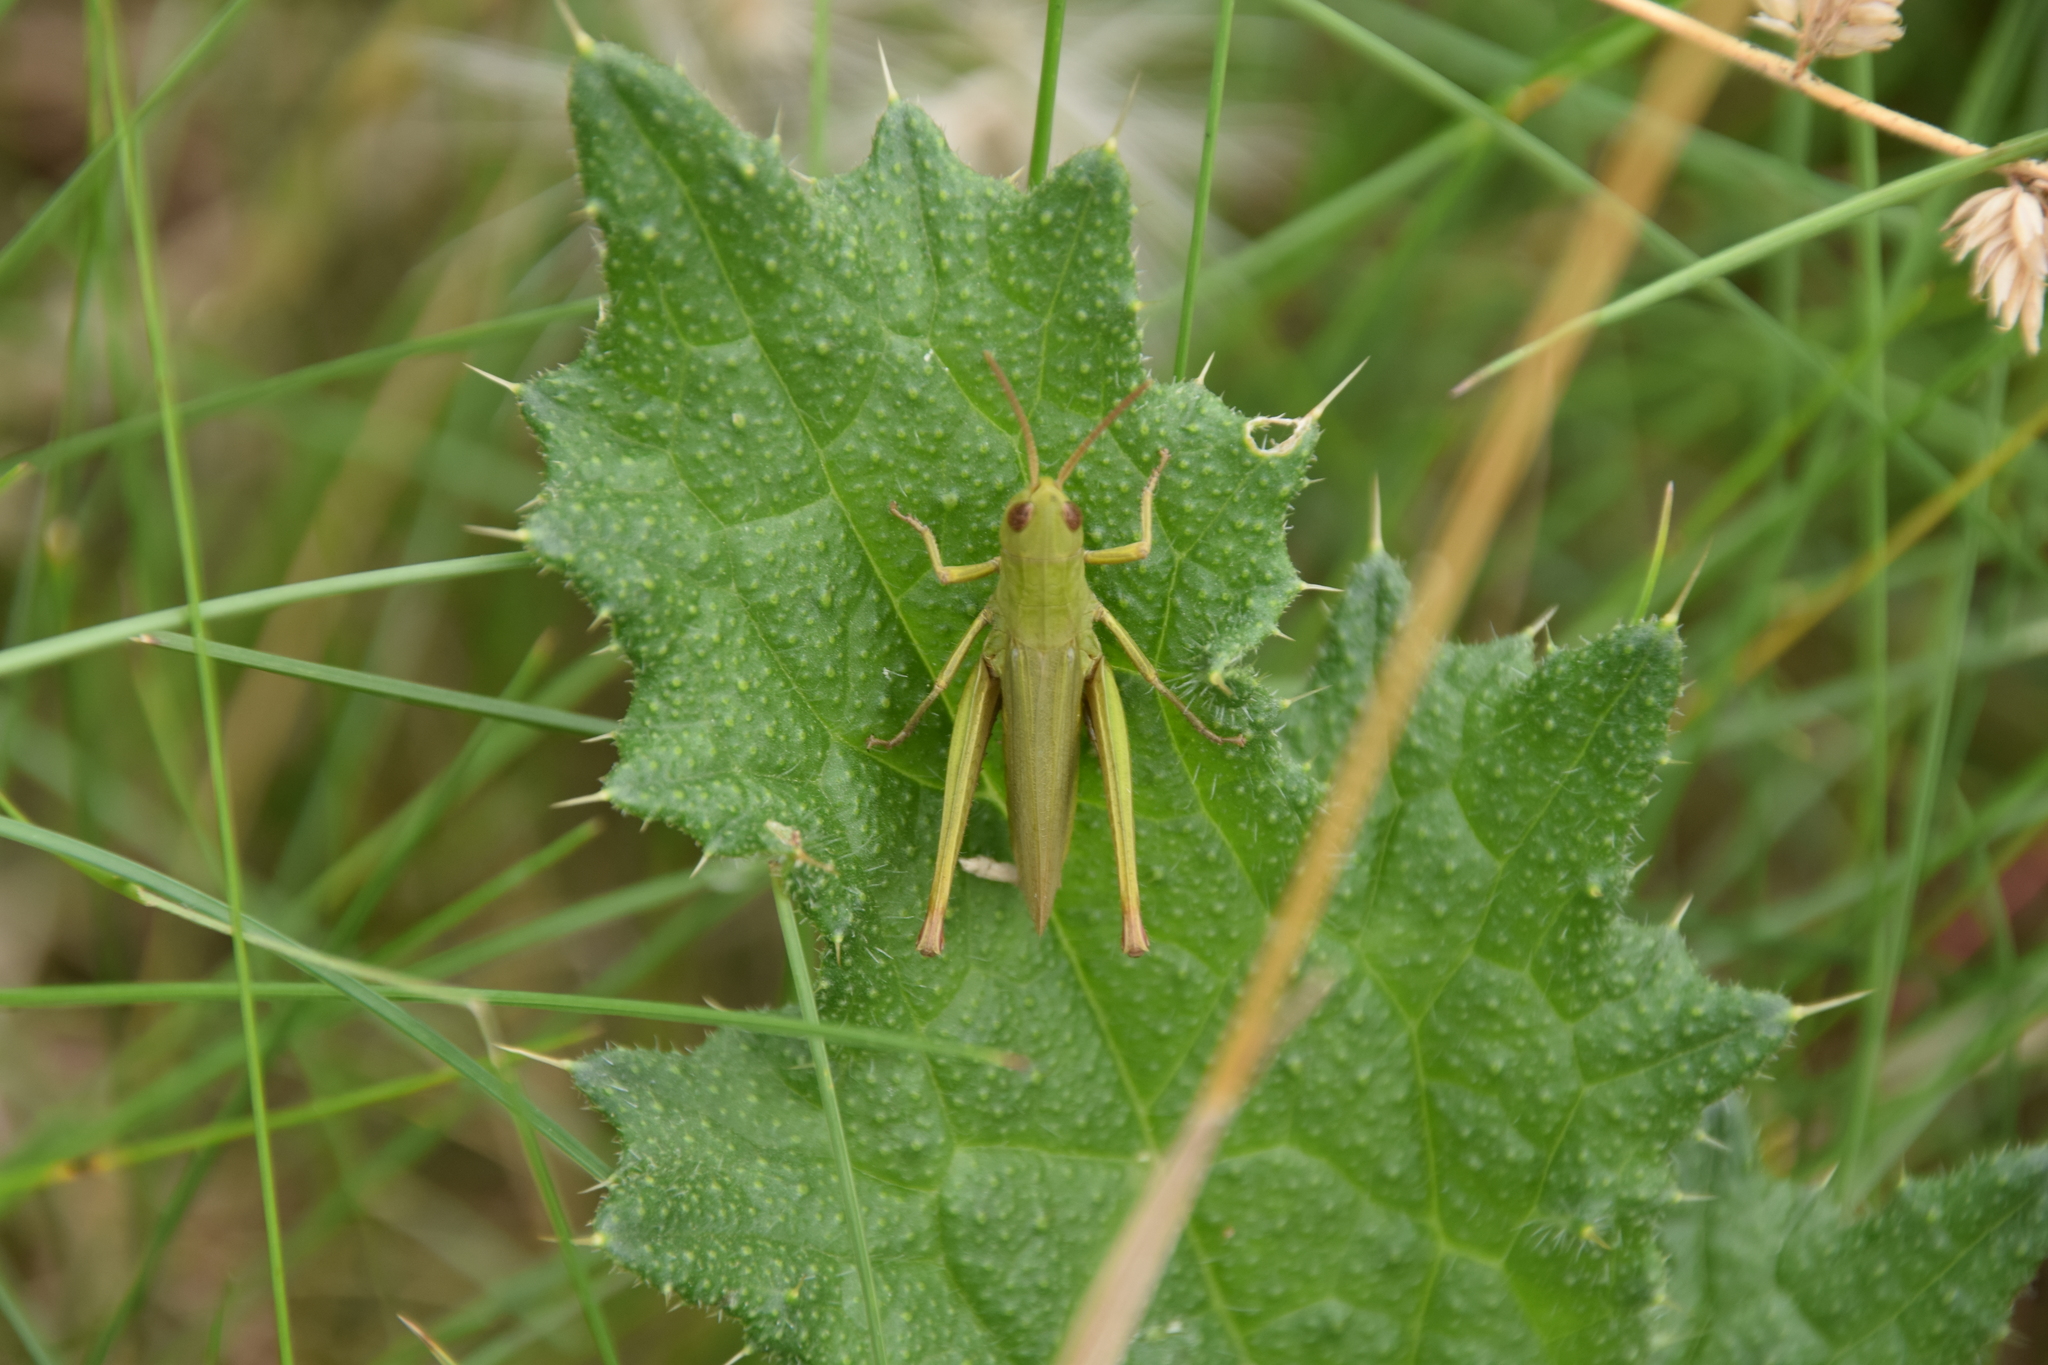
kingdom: Animalia
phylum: Arthropoda
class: Insecta
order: Orthoptera
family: Acrididae
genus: Chorthippus
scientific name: Chorthippus dorsatus
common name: Steppe grasshopper
